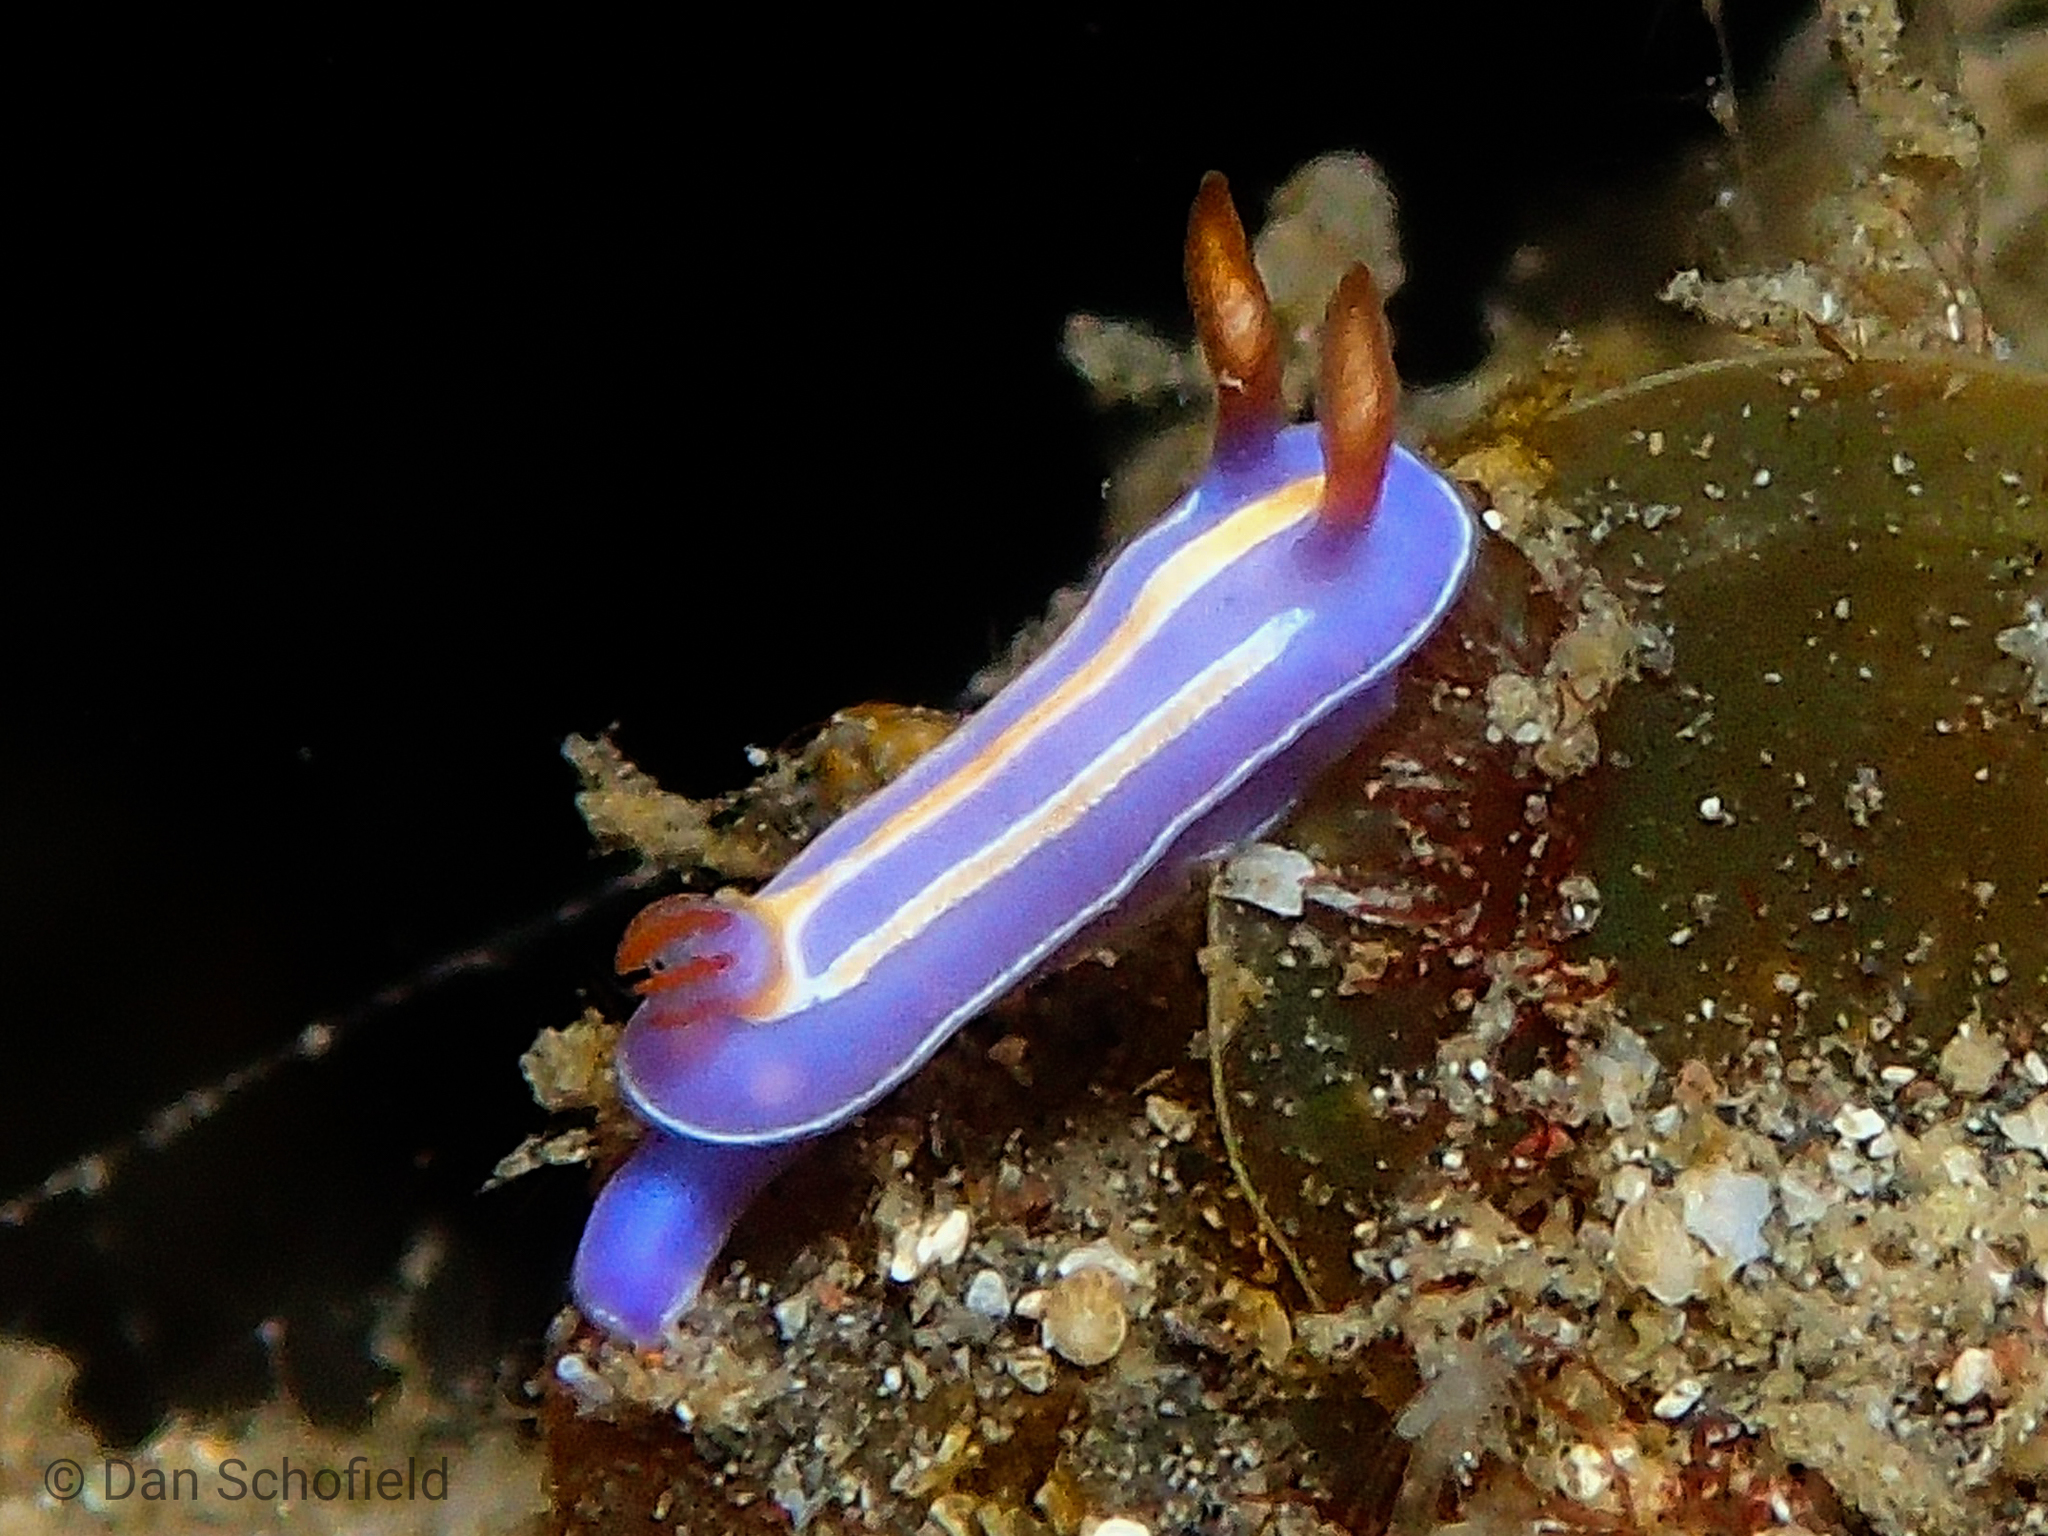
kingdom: Animalia
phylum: Mollusca
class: Gastropoda
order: Nudibranchia
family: Chromodorididae
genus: Mexichromis
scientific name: Mexichromis trilineata
